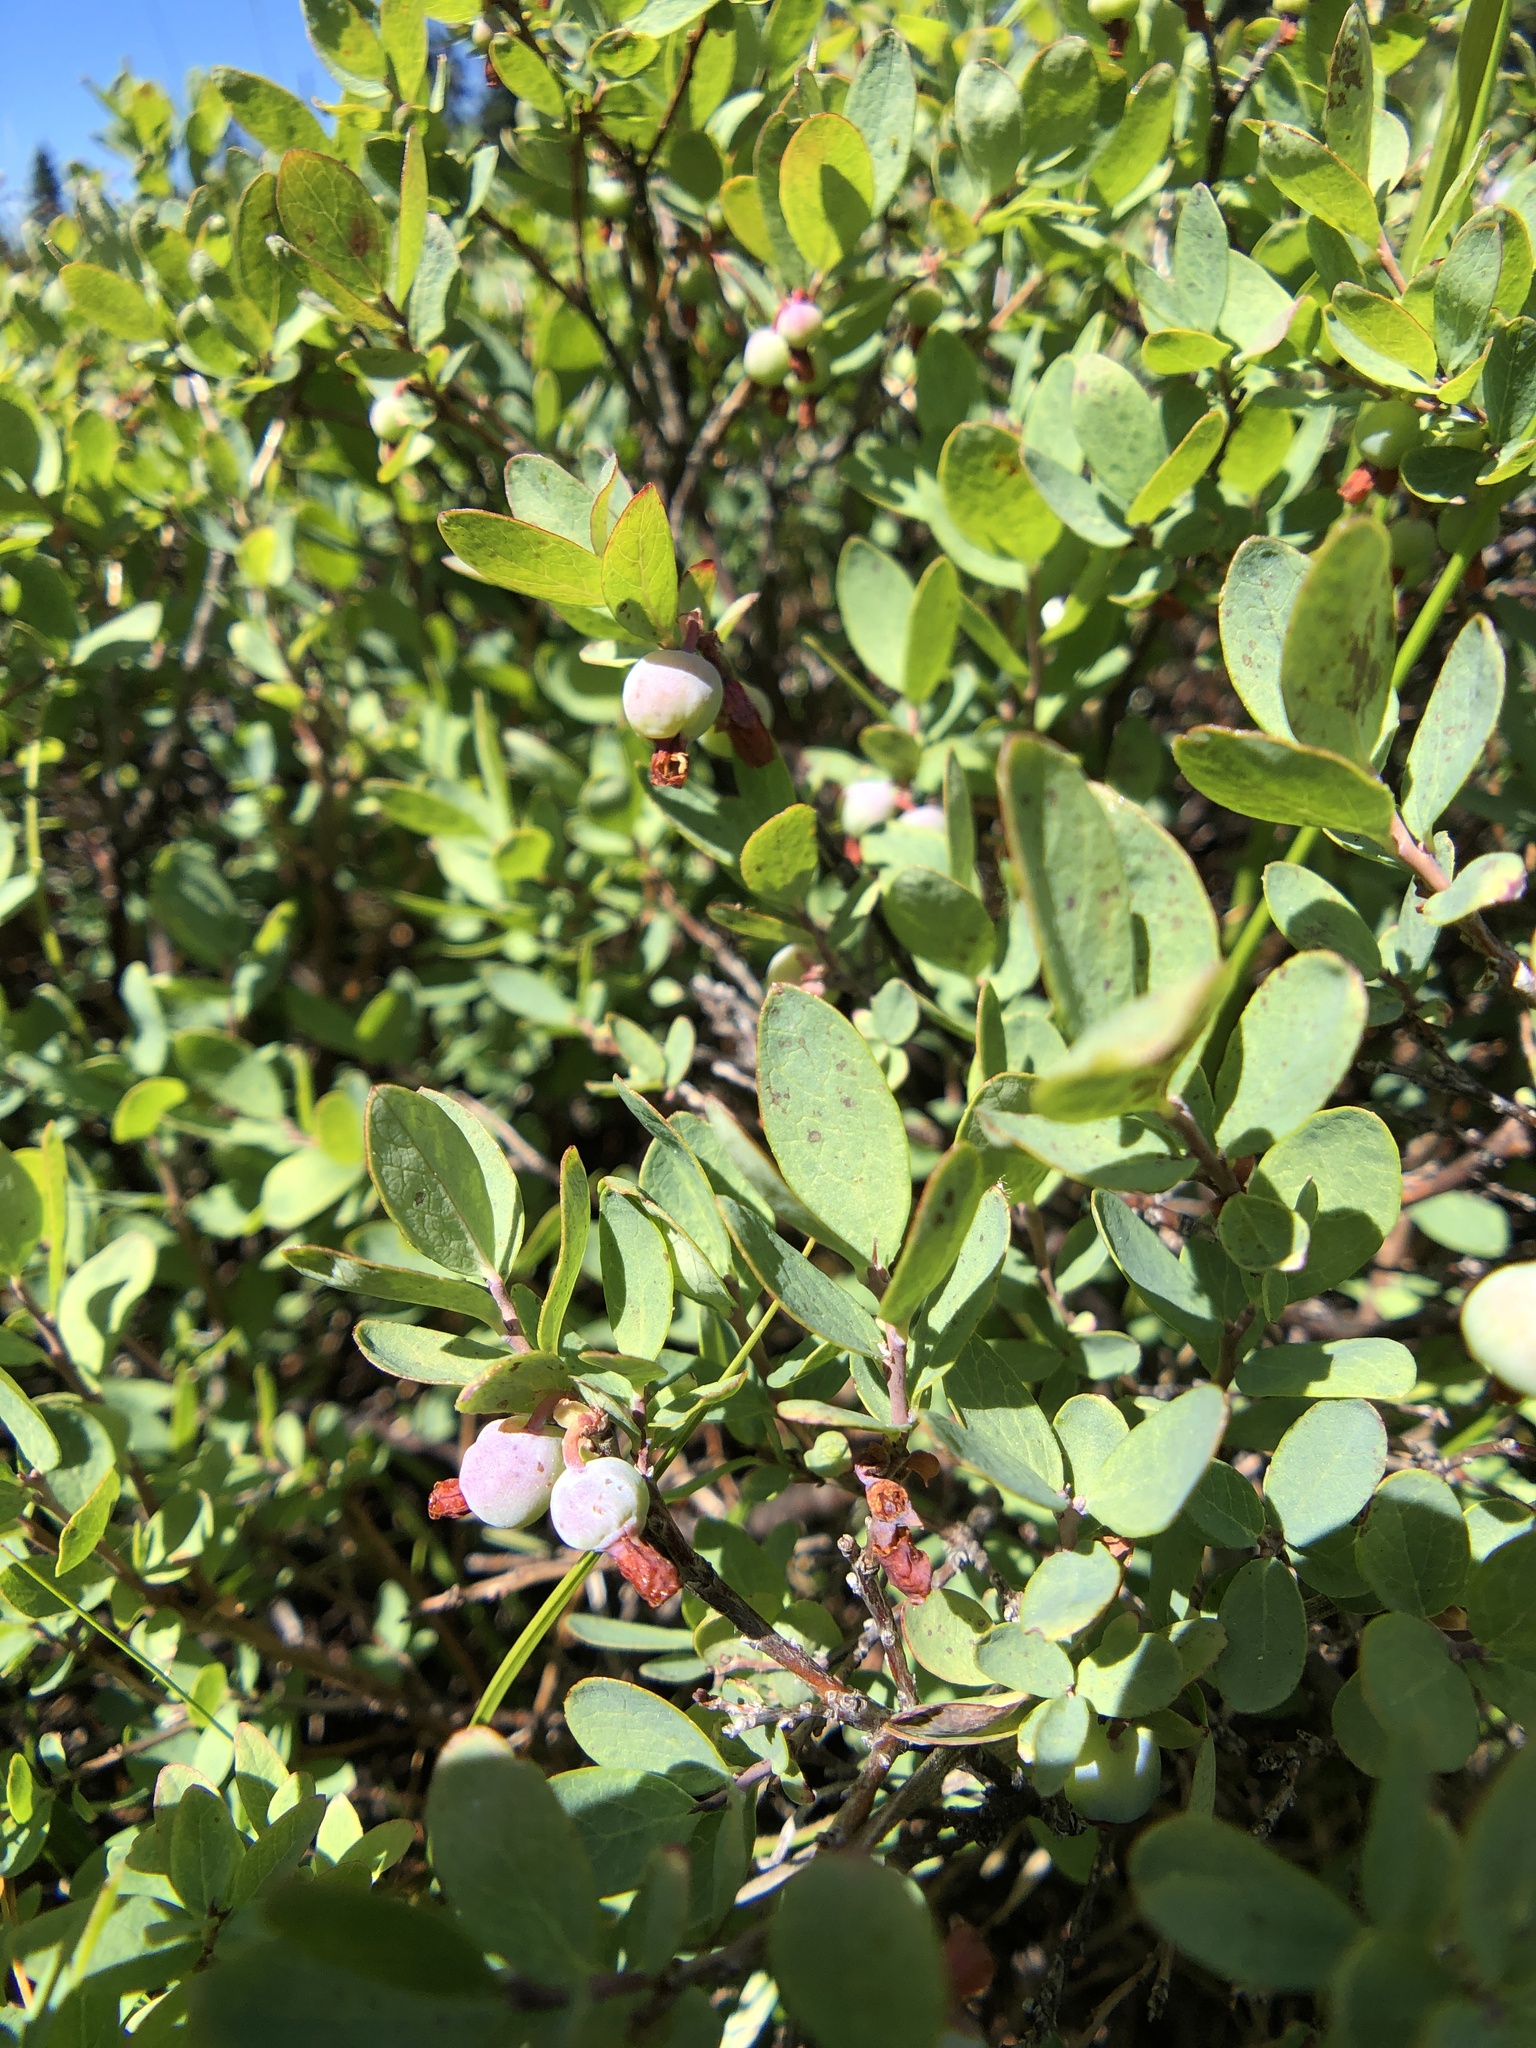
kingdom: Plantae
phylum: Tracheophyta
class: Magnoliopsida
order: Ericales
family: Ericaceae
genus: Vaccinium
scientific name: Vaccinium uliginosum
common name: Bog bilberry
